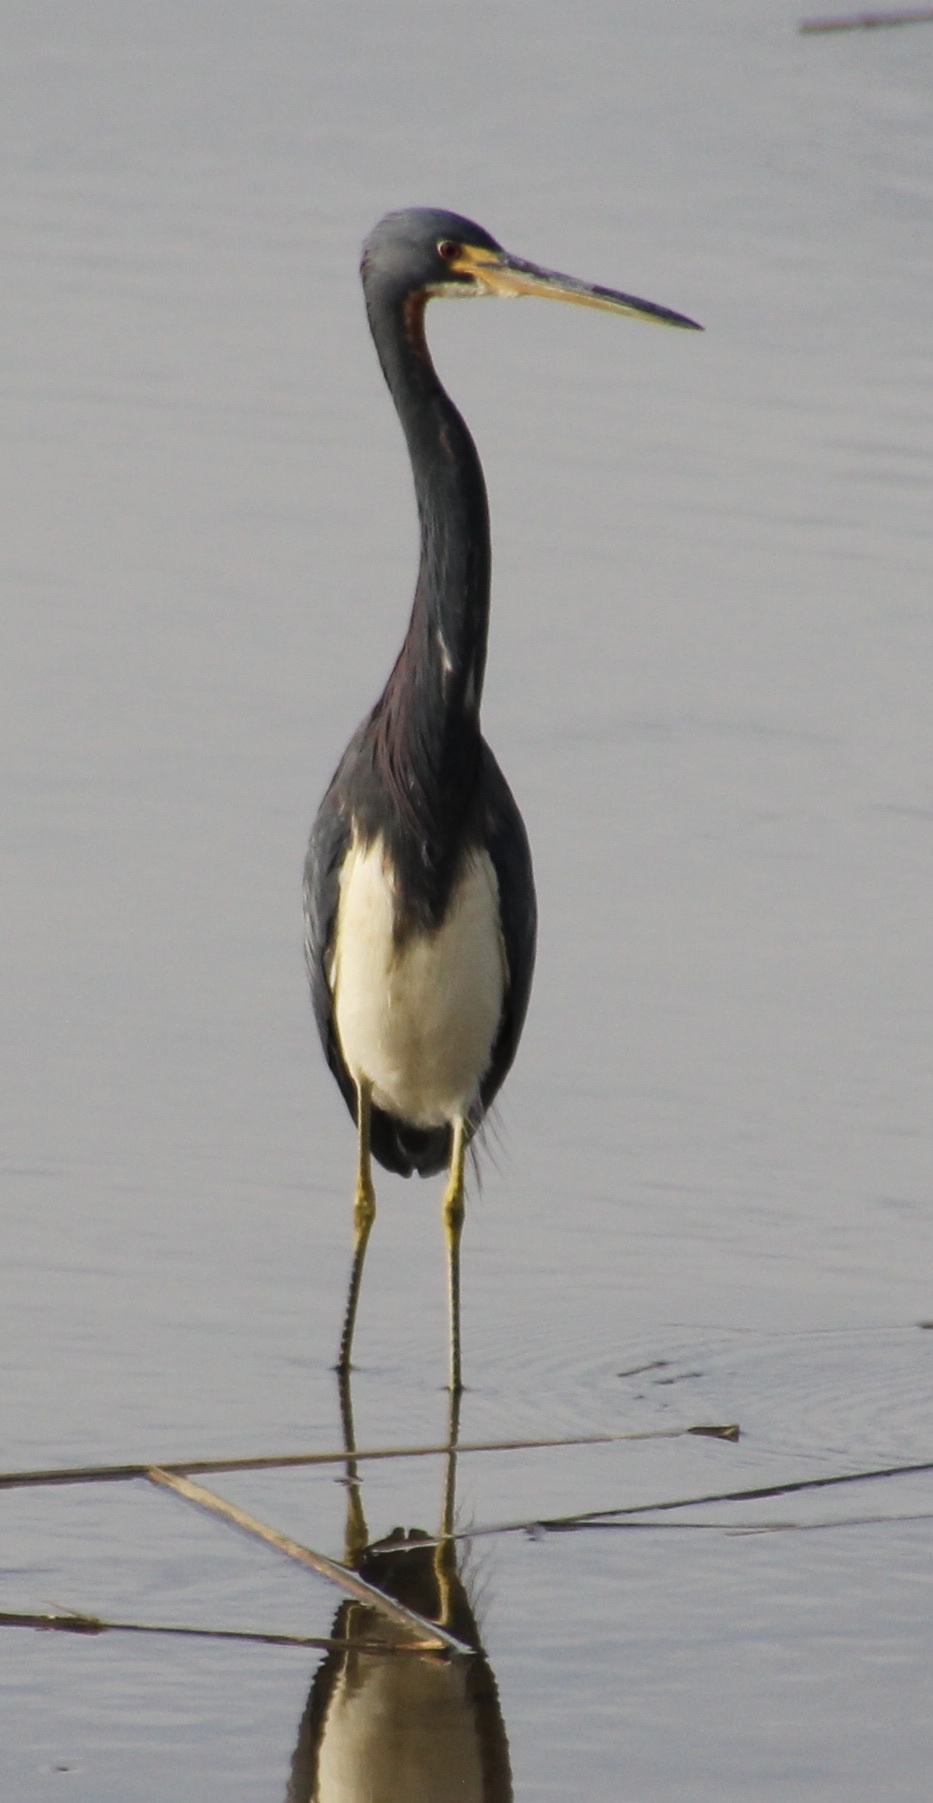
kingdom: Animalia
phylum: Chordata
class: Aves
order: Pelecaniformes
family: Ardeidae
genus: Egretta
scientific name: Egretta tricolor
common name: Tricolored heron
